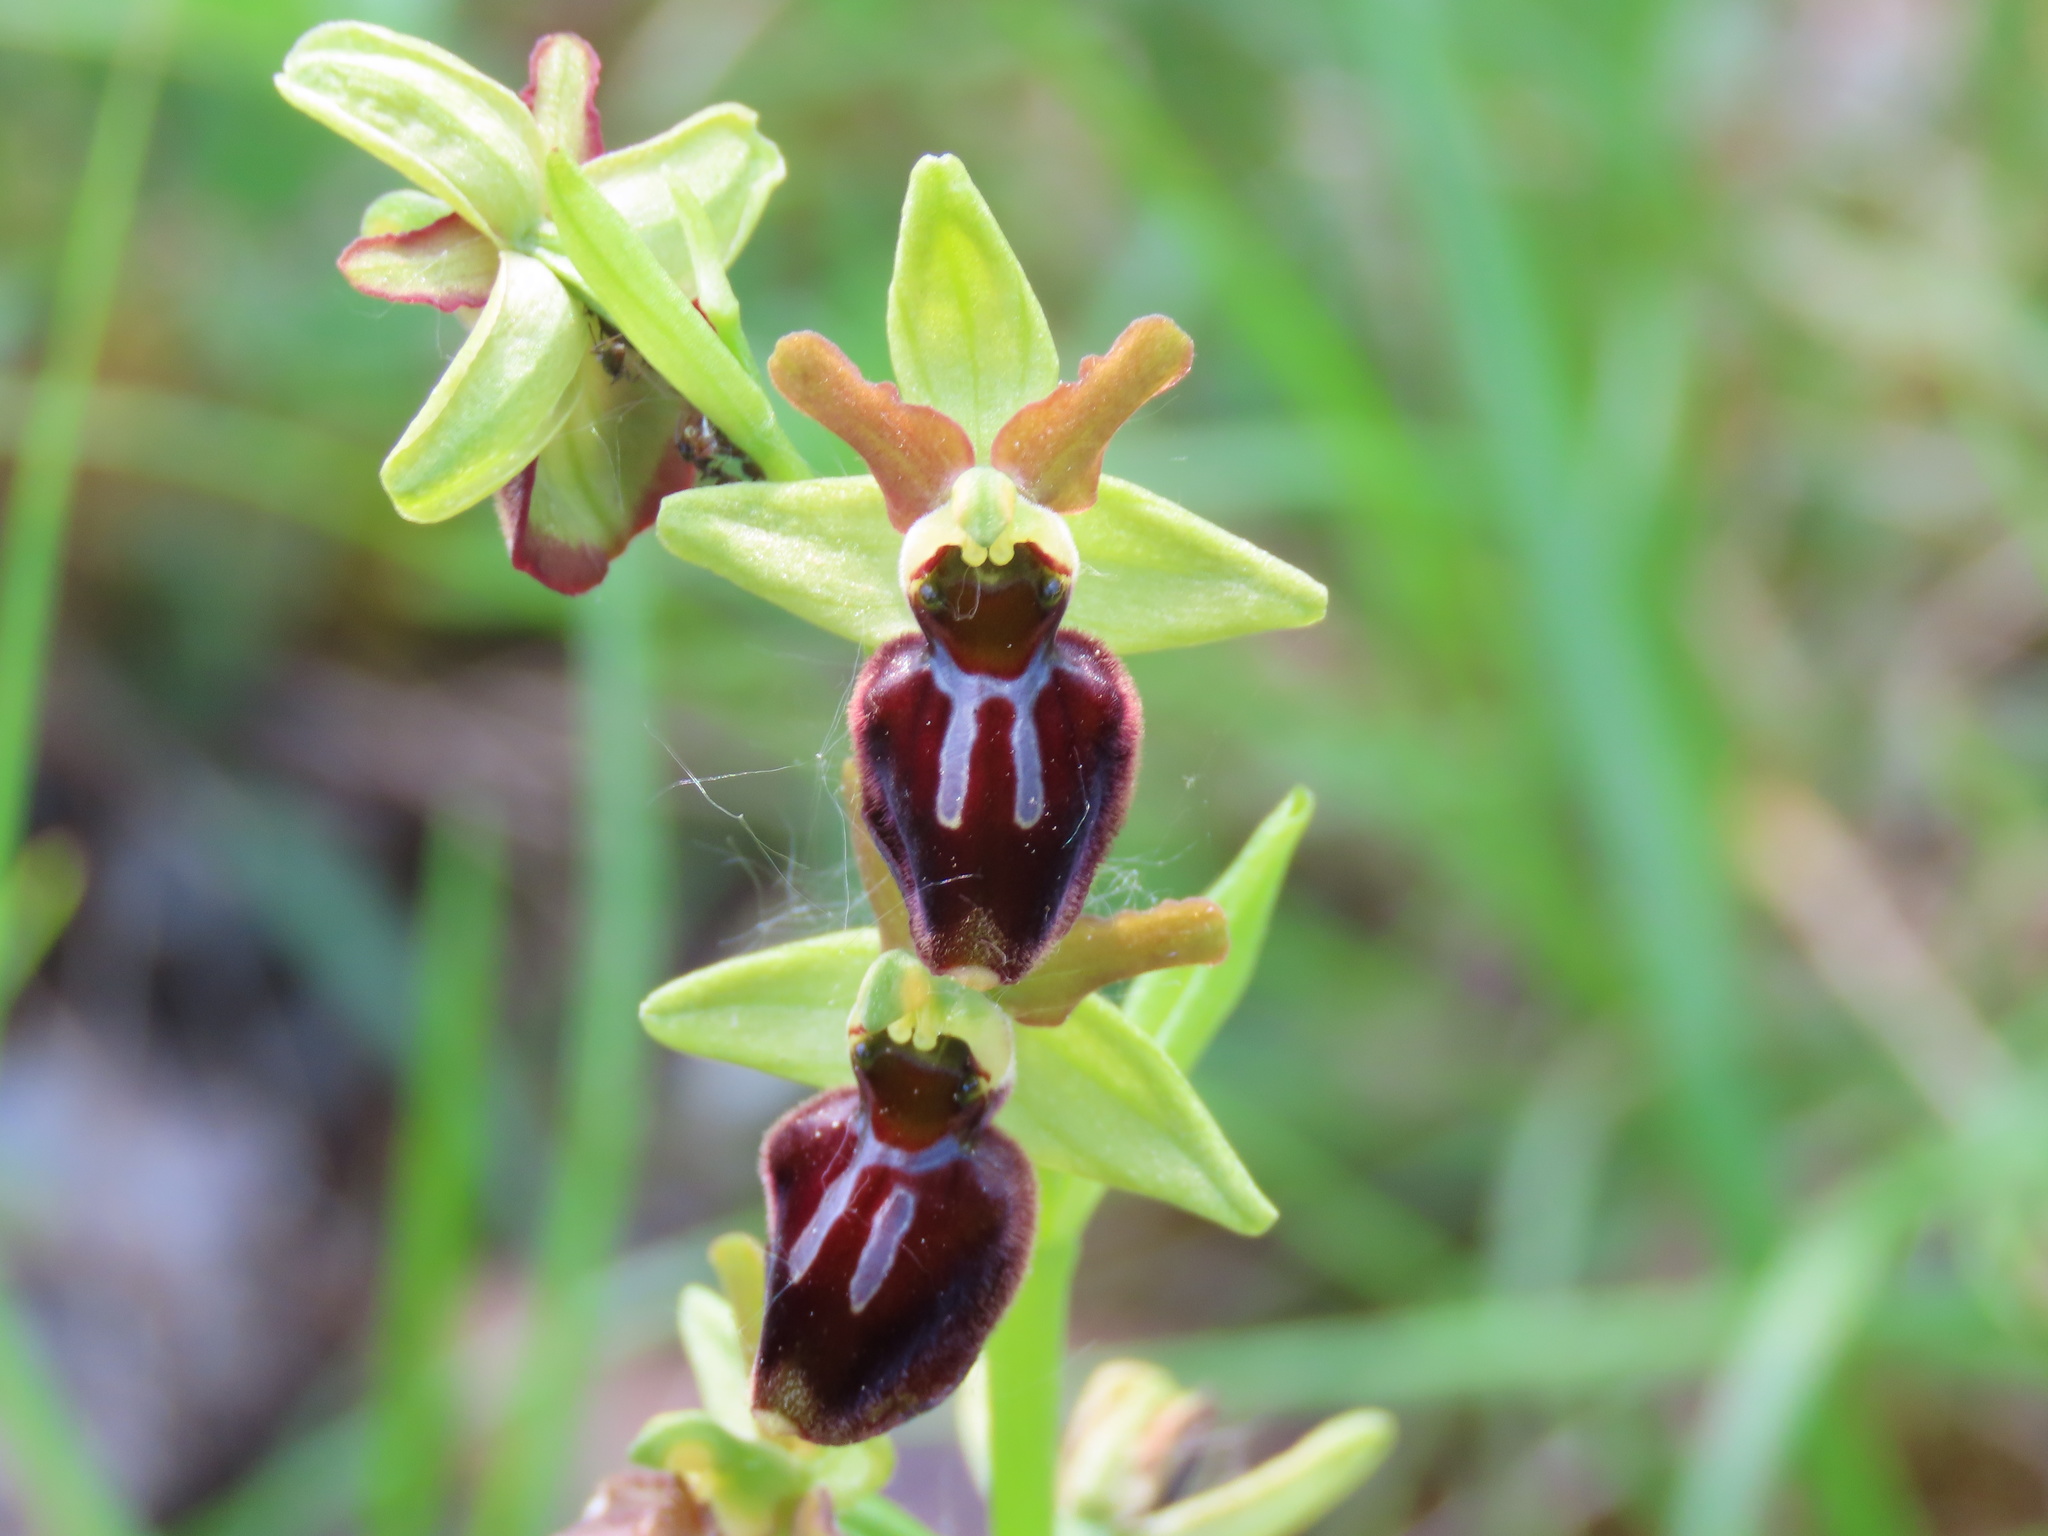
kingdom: Plantae
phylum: Tracheophyta
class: Liliopsida
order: Asparagales
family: Orchidaceae
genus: Ophrys
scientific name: Ophrys sphegodes
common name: Early spider-orchid
